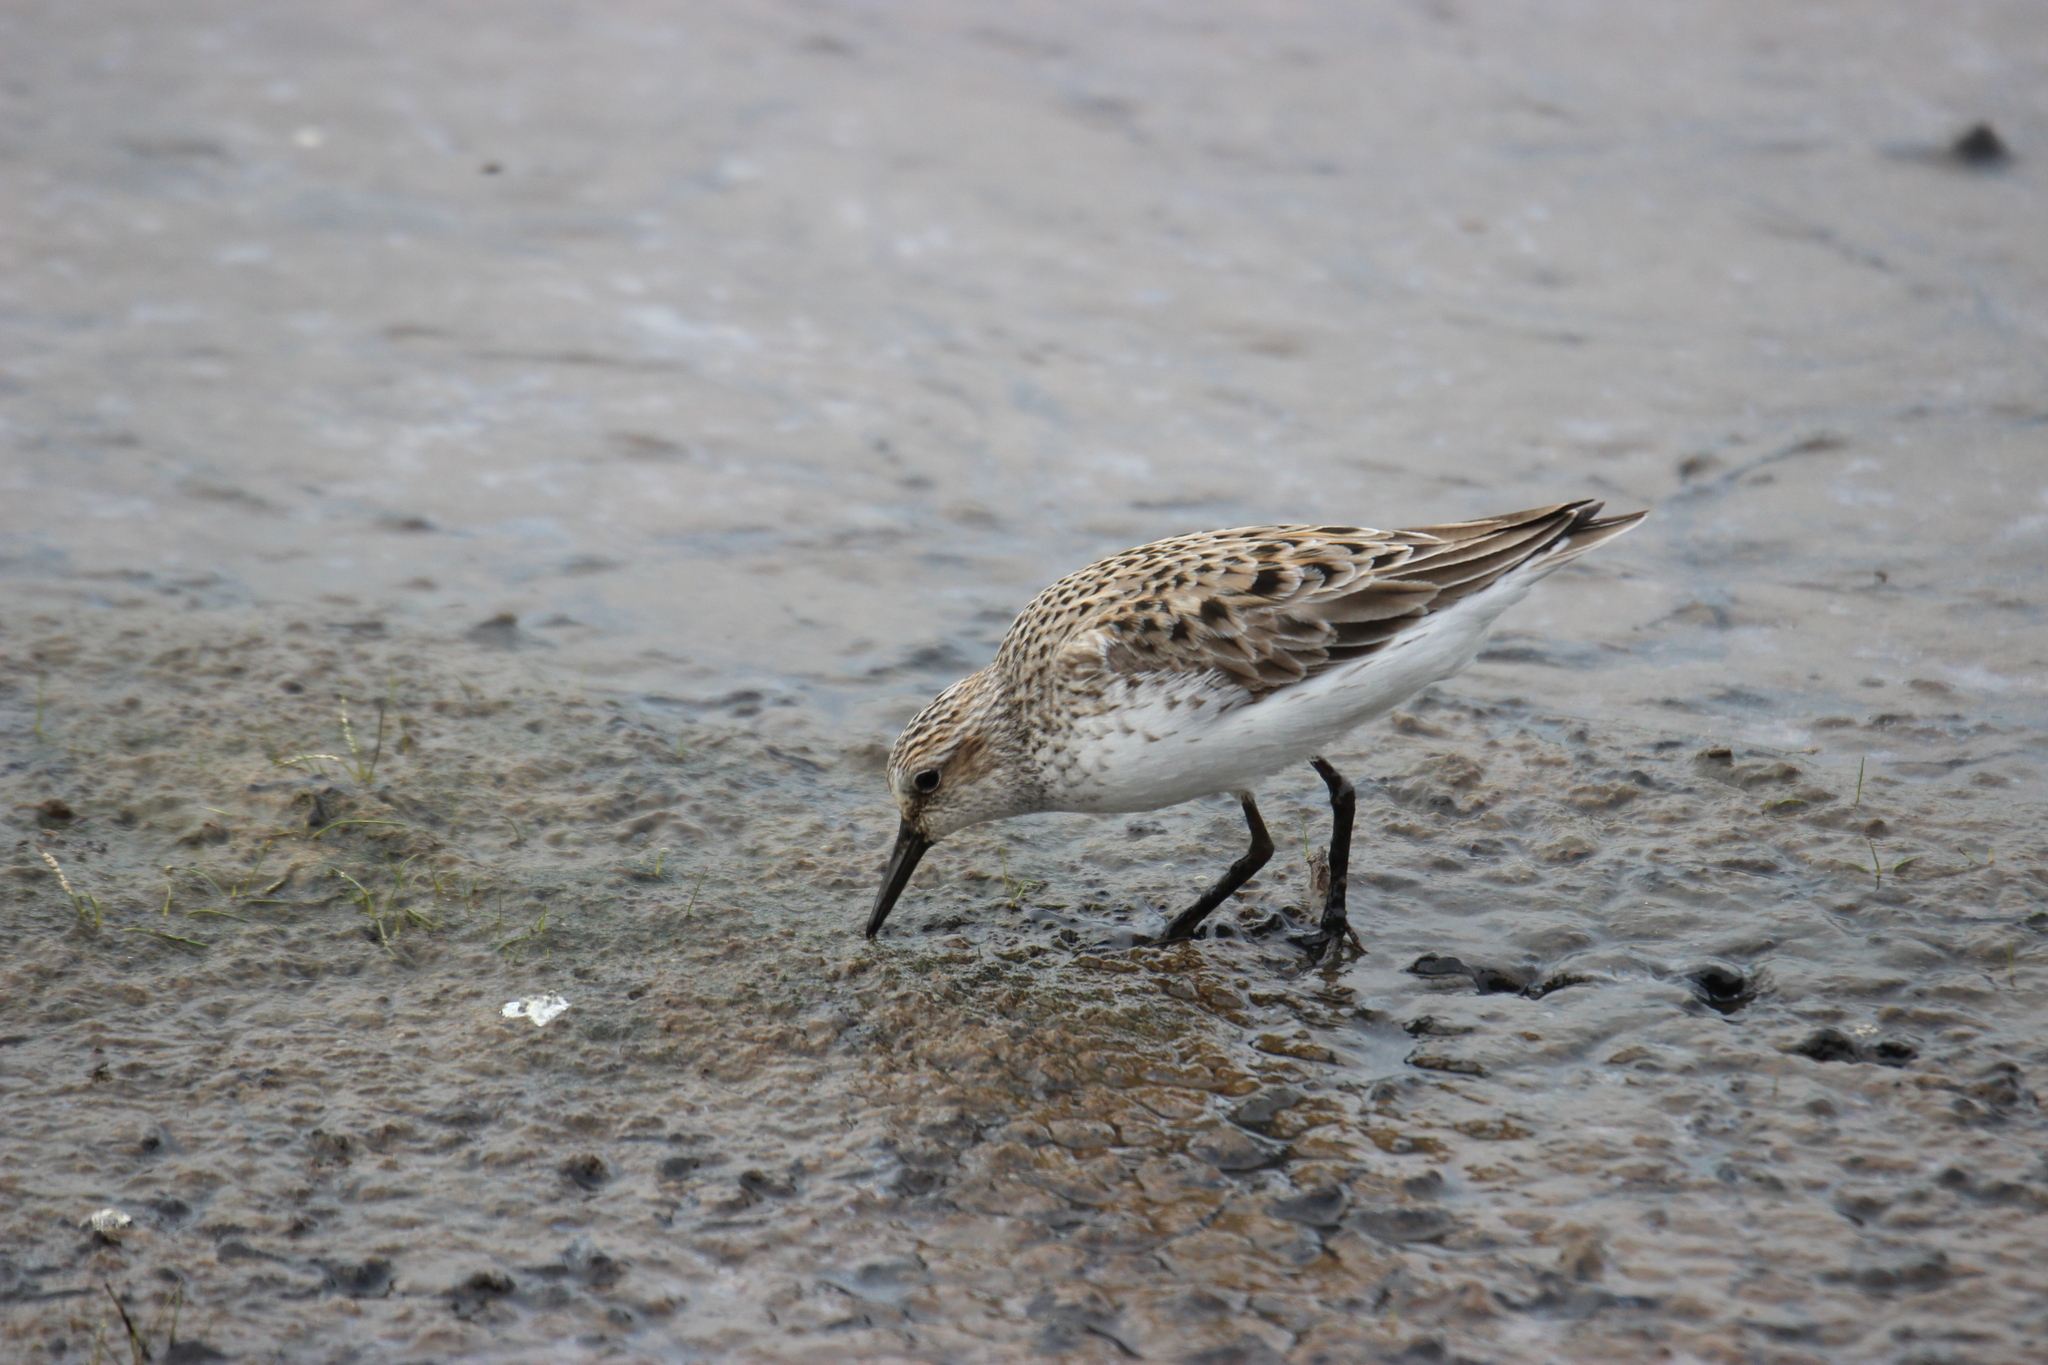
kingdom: Animalia
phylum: Chordata
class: Aves
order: Charadriiformes
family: Scolopacidae
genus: Calidris
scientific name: Calidris pusilla
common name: Semipalmated sandpiper
